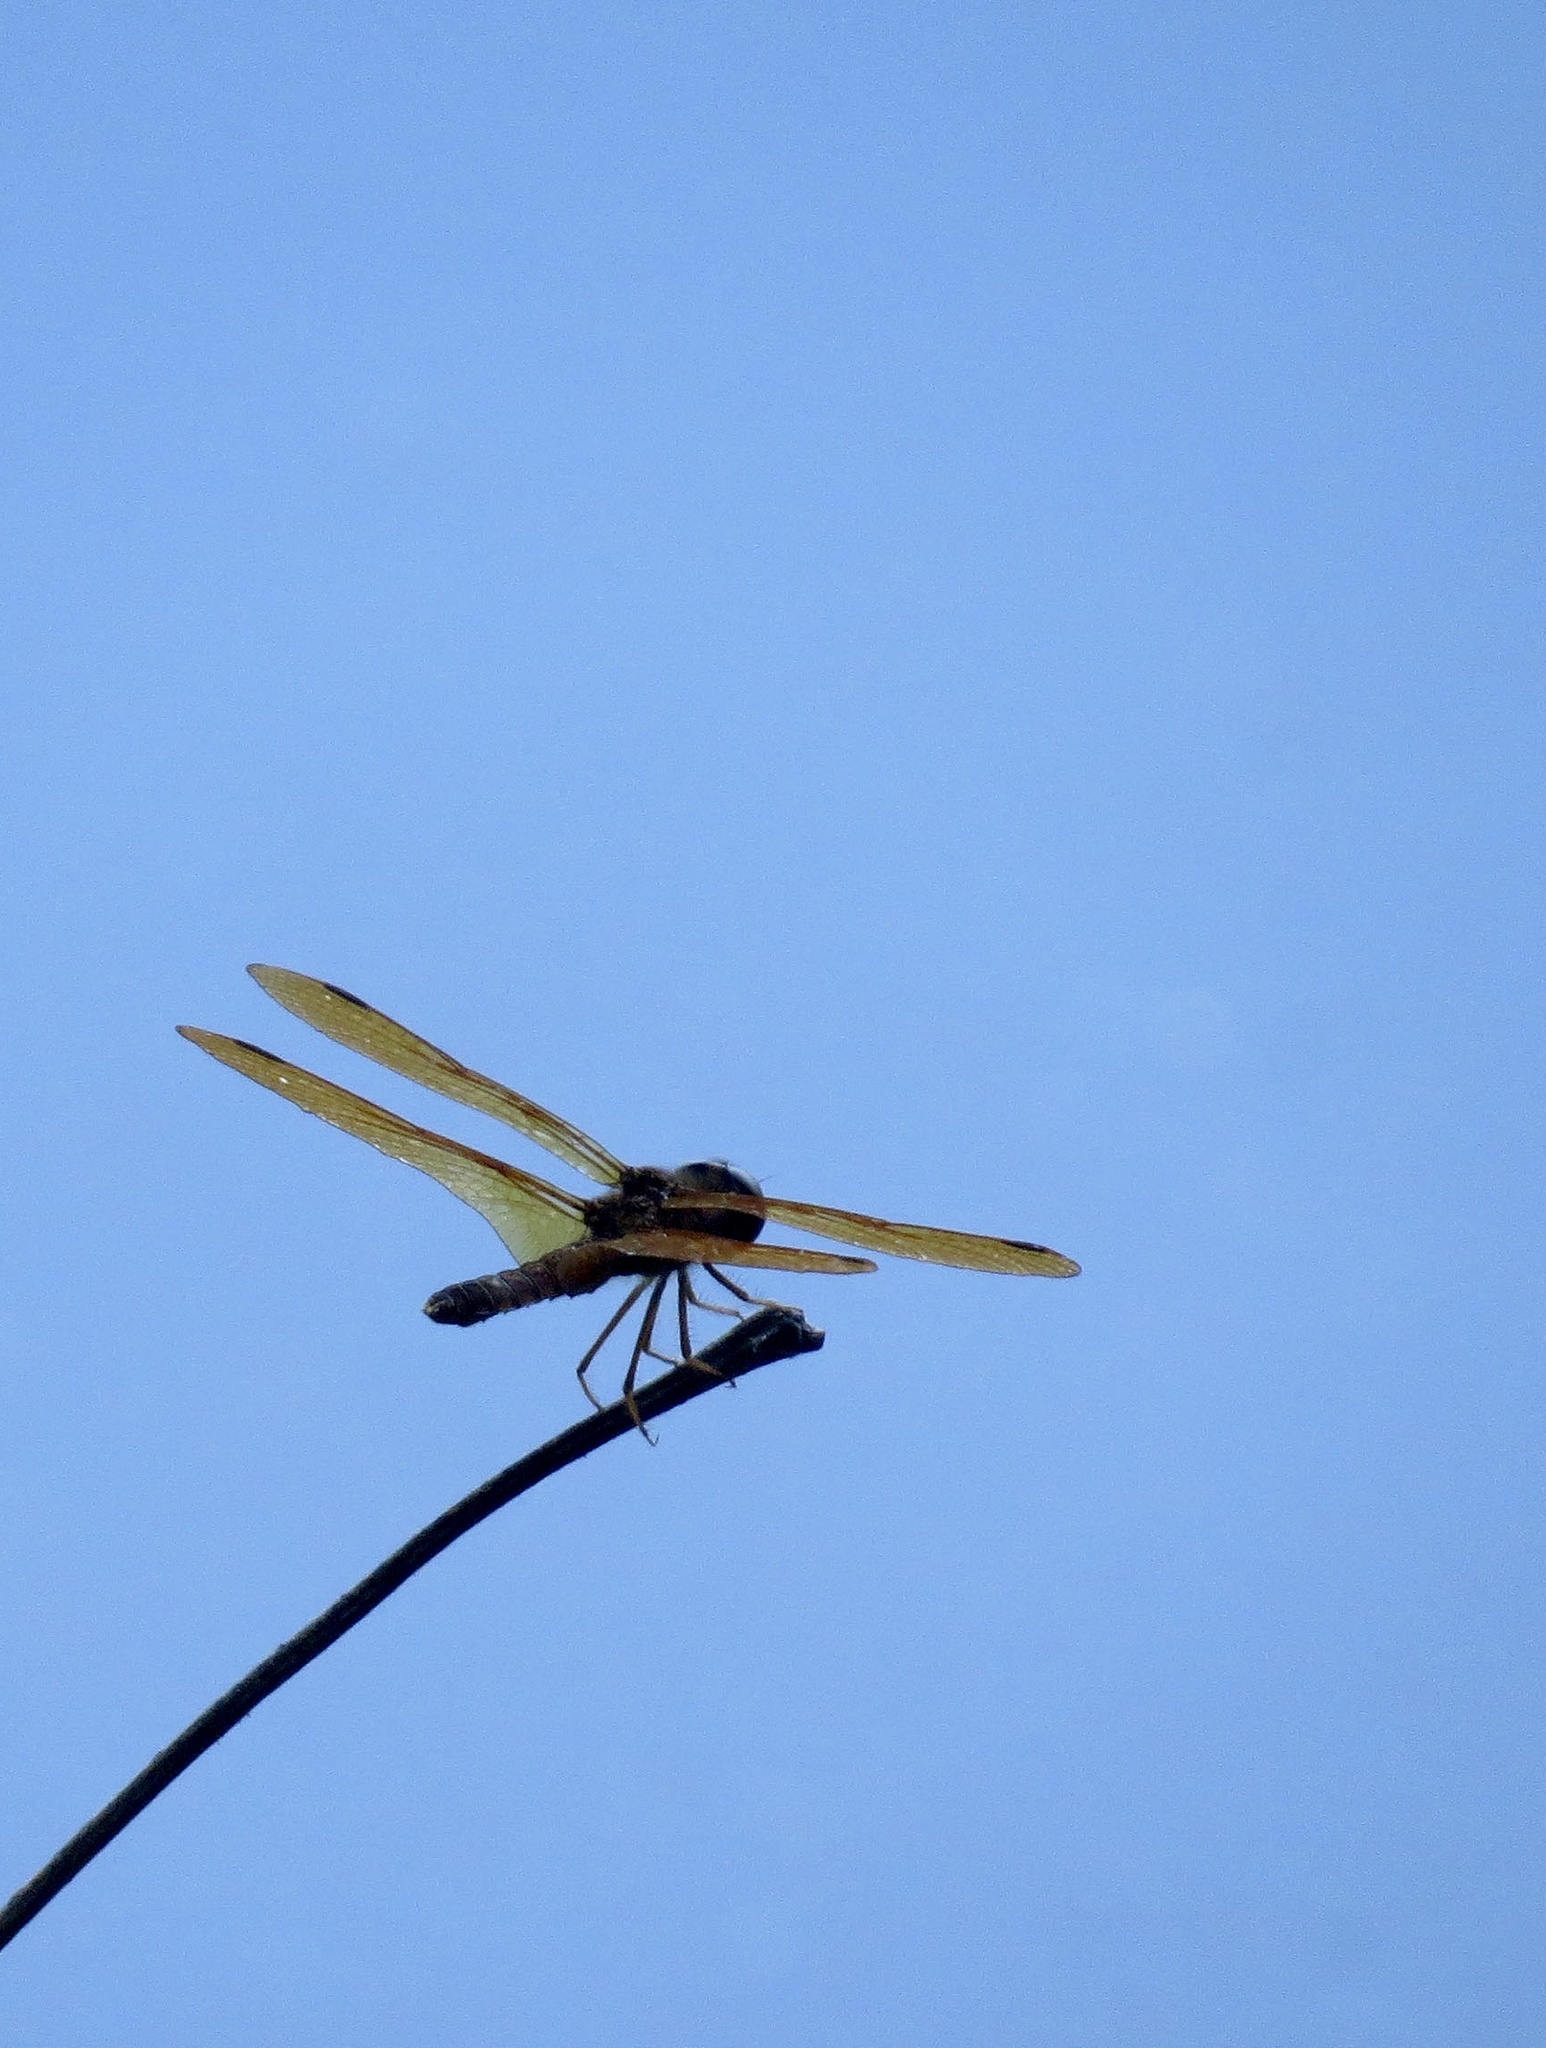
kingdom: Animalia
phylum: Arthropoda
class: Insecta
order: Odonata
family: Libellulidae
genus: Perithemis
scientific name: Perithemis tenera
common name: Eastern amberwing
